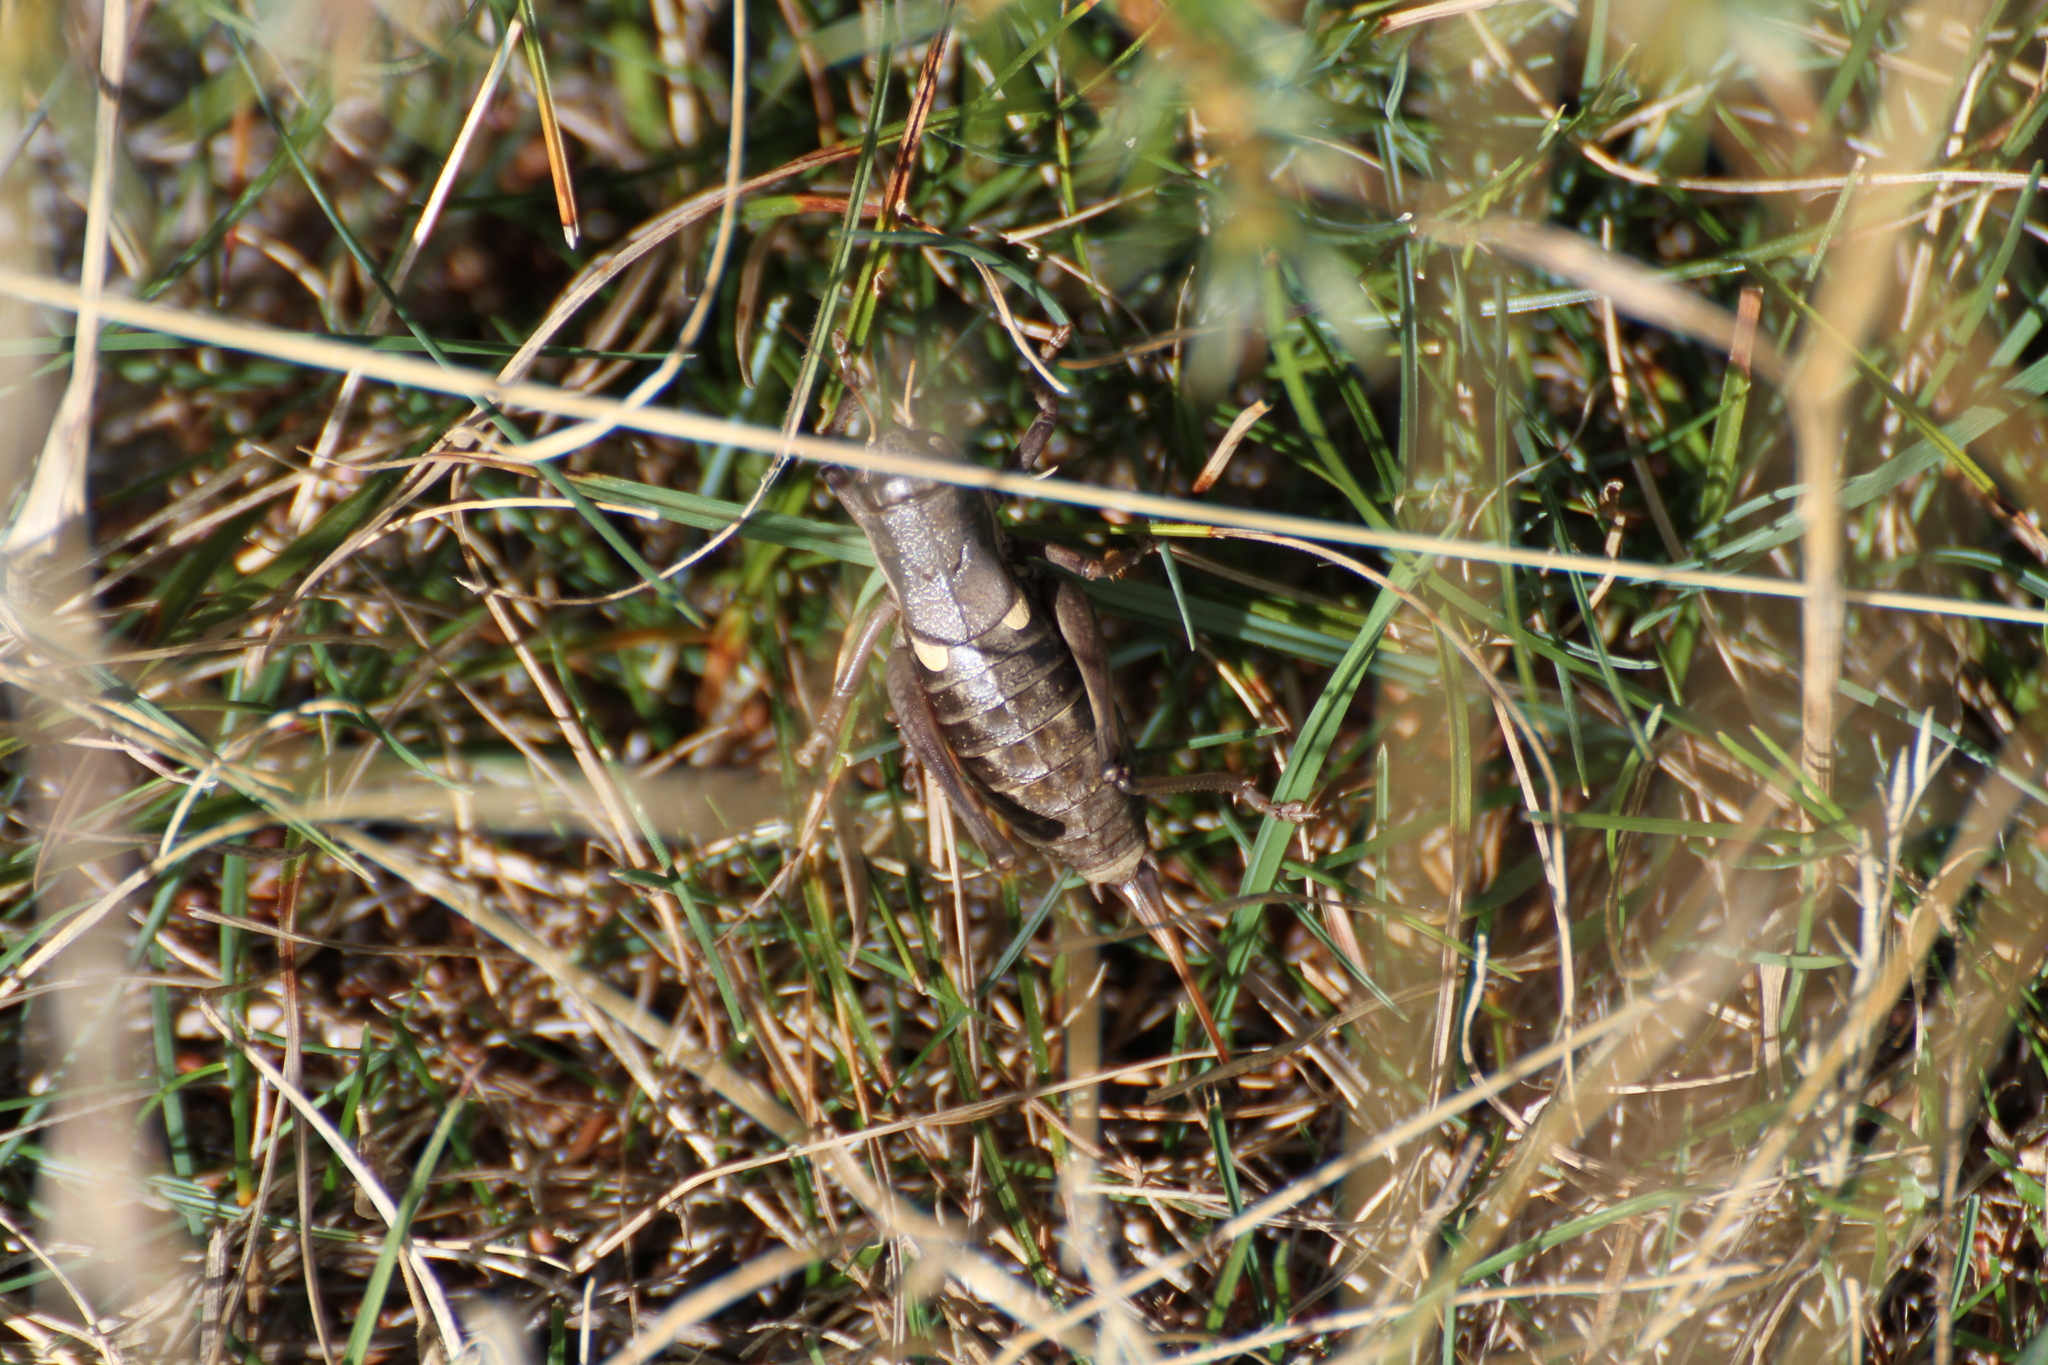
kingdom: Animalia
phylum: Arthropoda
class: Insecta
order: Orthoptera
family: Tettigoniidae
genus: Anonconotus
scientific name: Anonconotus ghilianii
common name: Ghiliani's alpine bush-cricket
